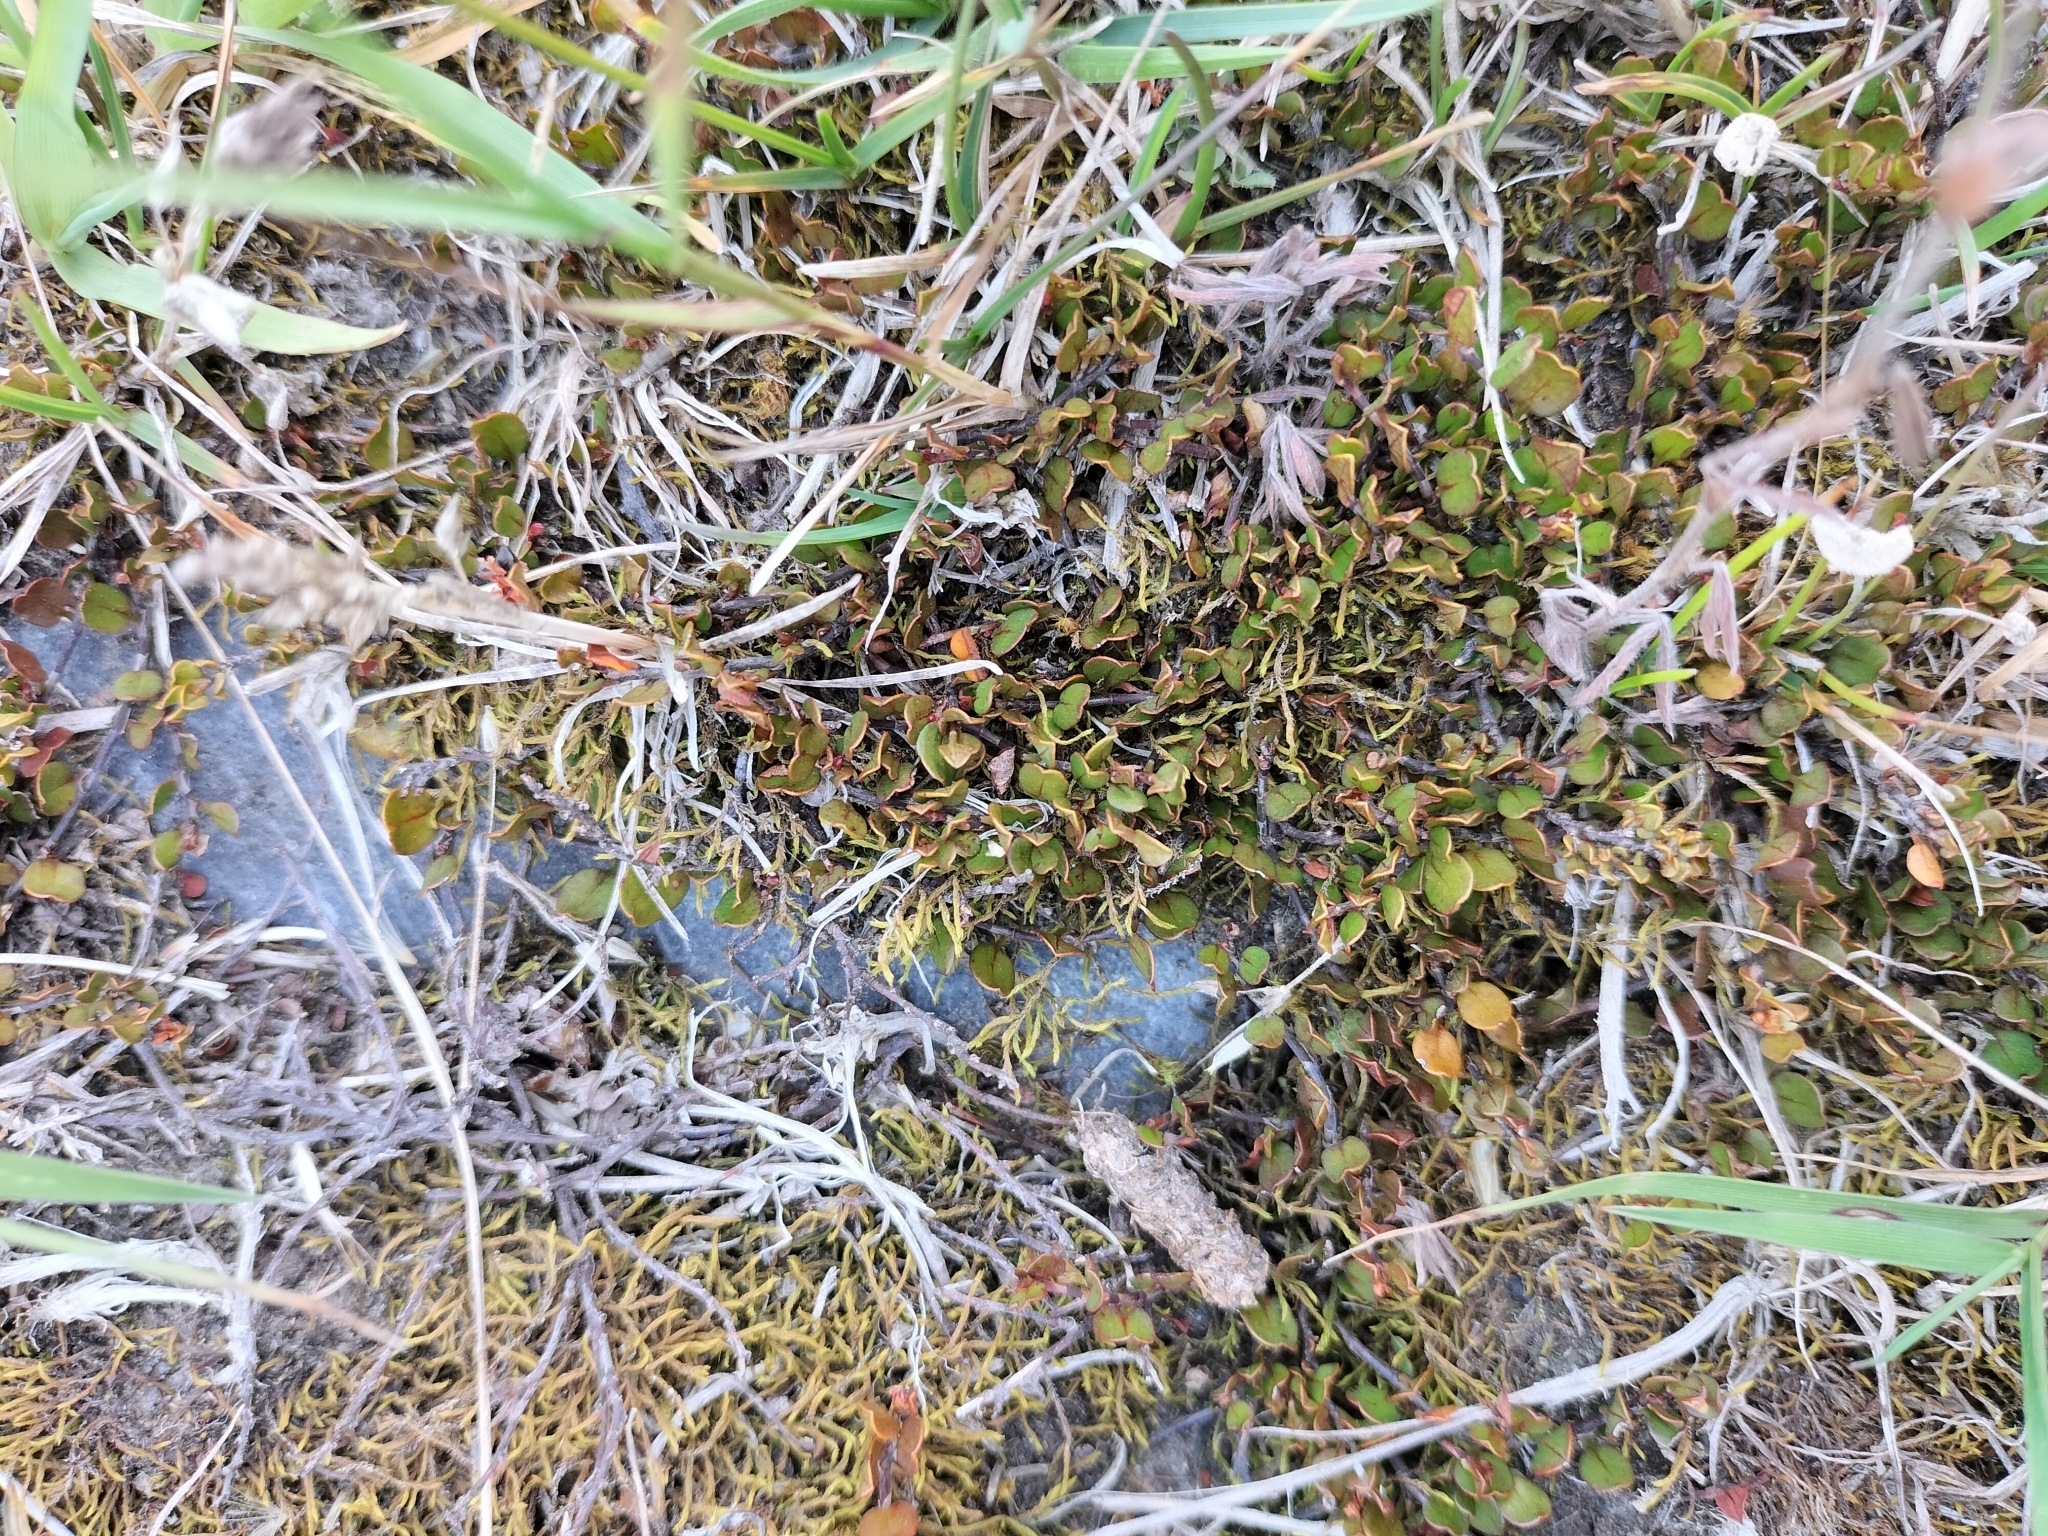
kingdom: Plantae
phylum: Tracheophyta
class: Magnoliopsida
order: Caryophyllales
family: Polygonaceae
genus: Muehlenbeckia
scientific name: Muehlenbeckia axillaris
